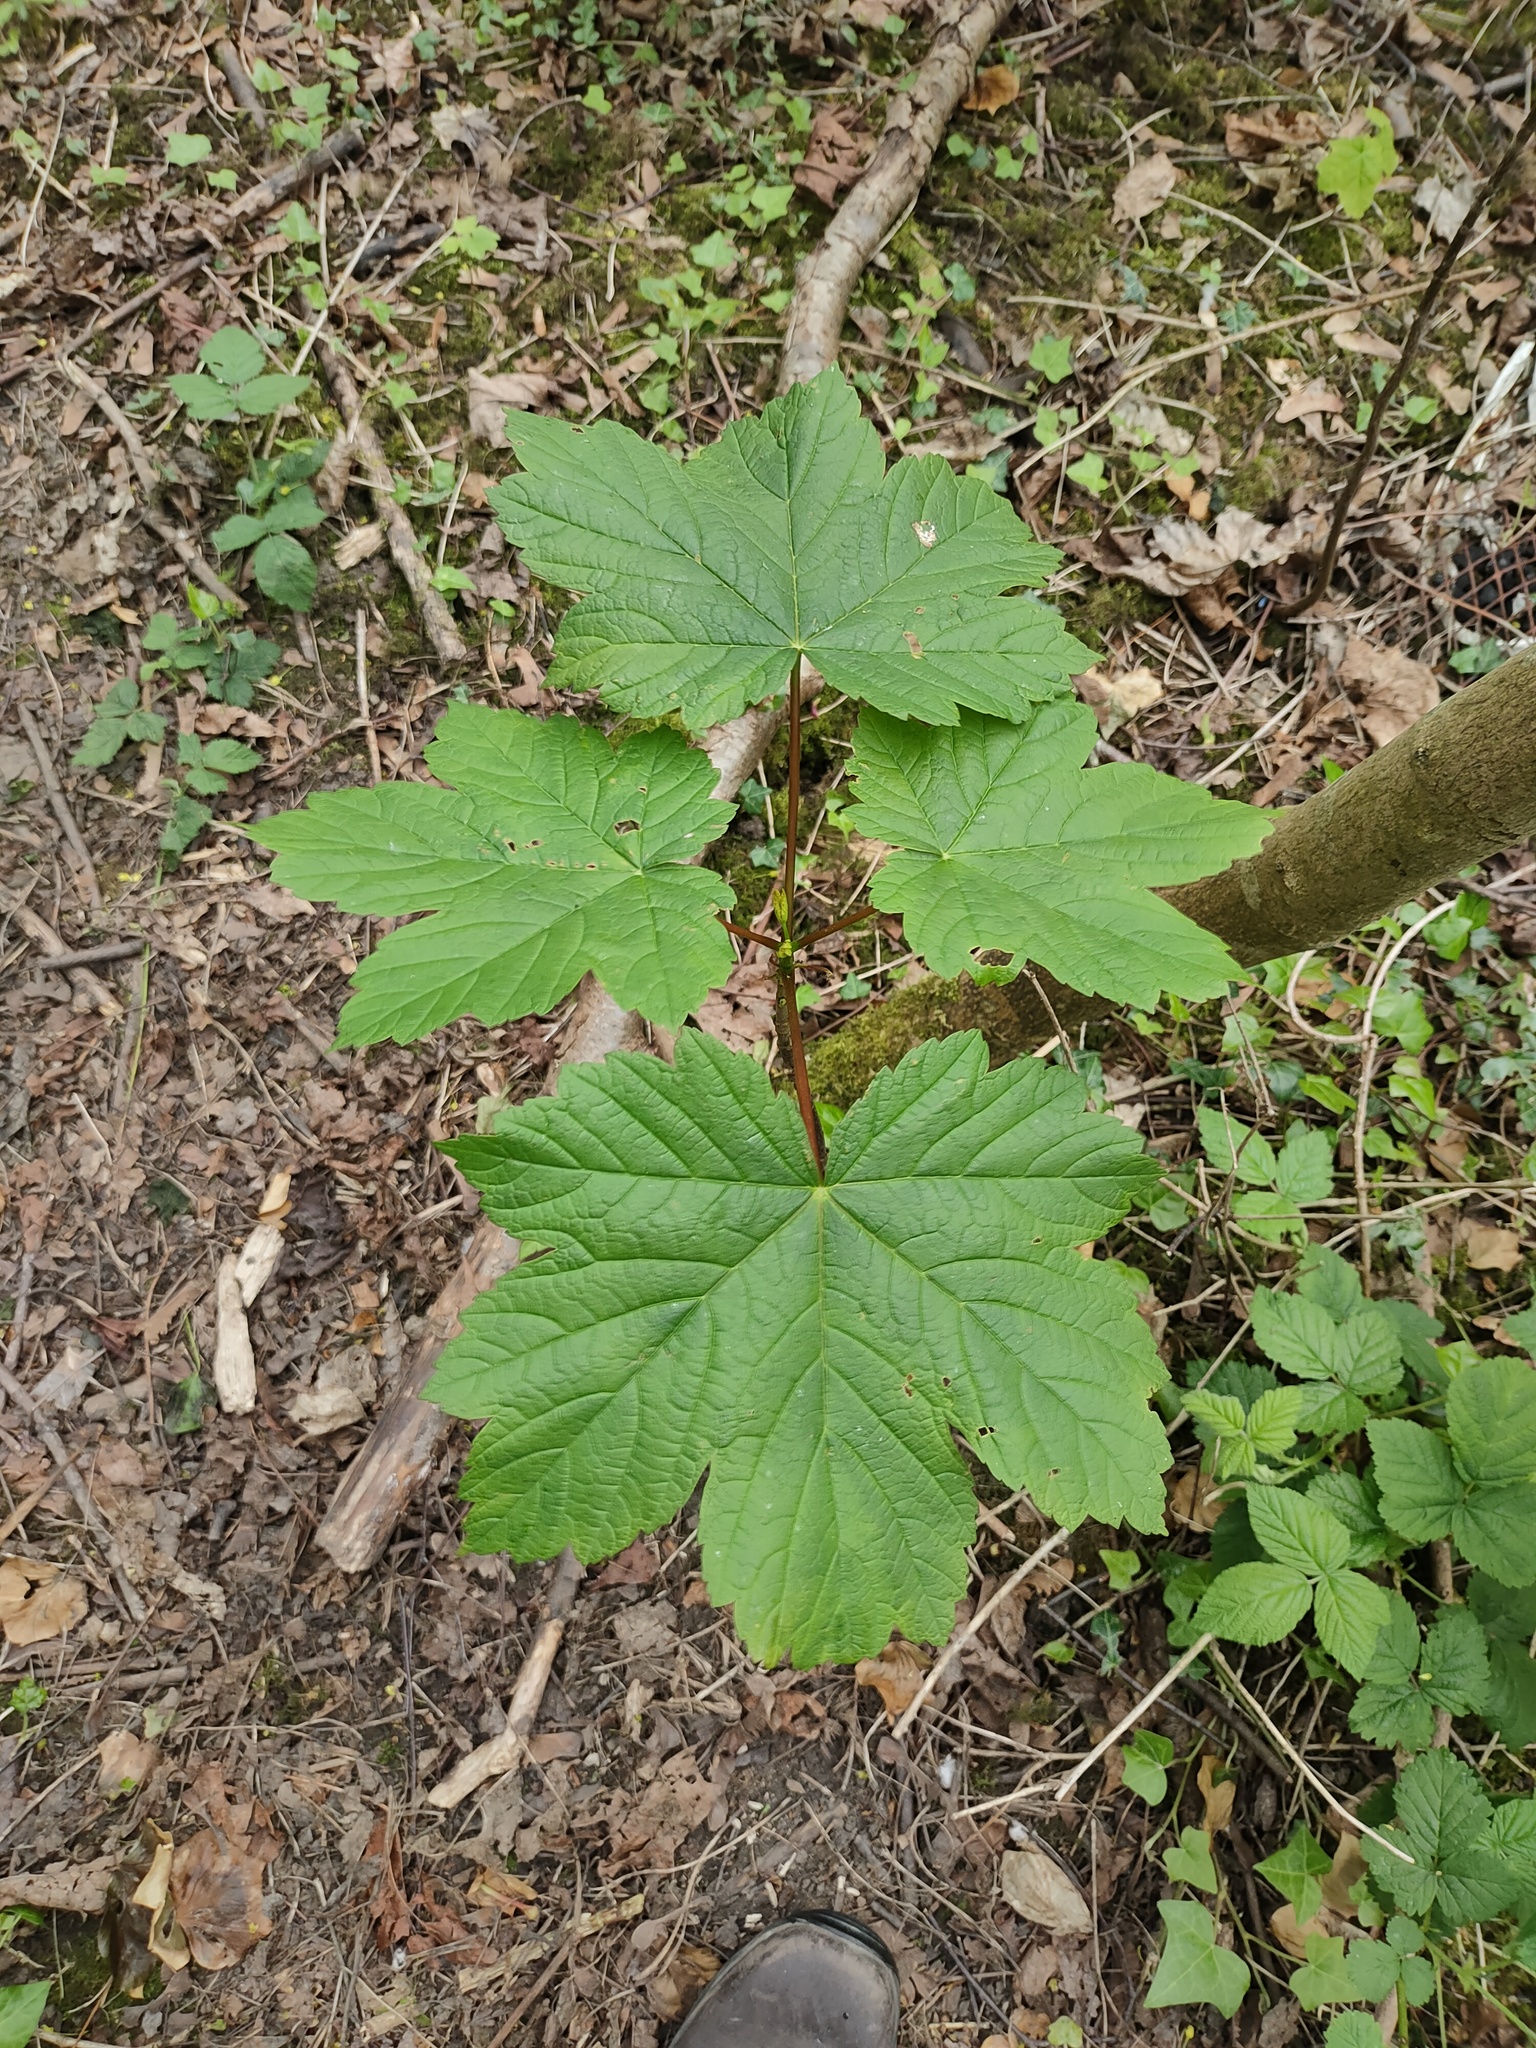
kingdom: Plantae
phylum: Tracheophyta
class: Magnoliopsida
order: Sapindales
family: Sapindaceae
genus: Acer
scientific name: Acer pseudoplatanus
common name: Sycamore
